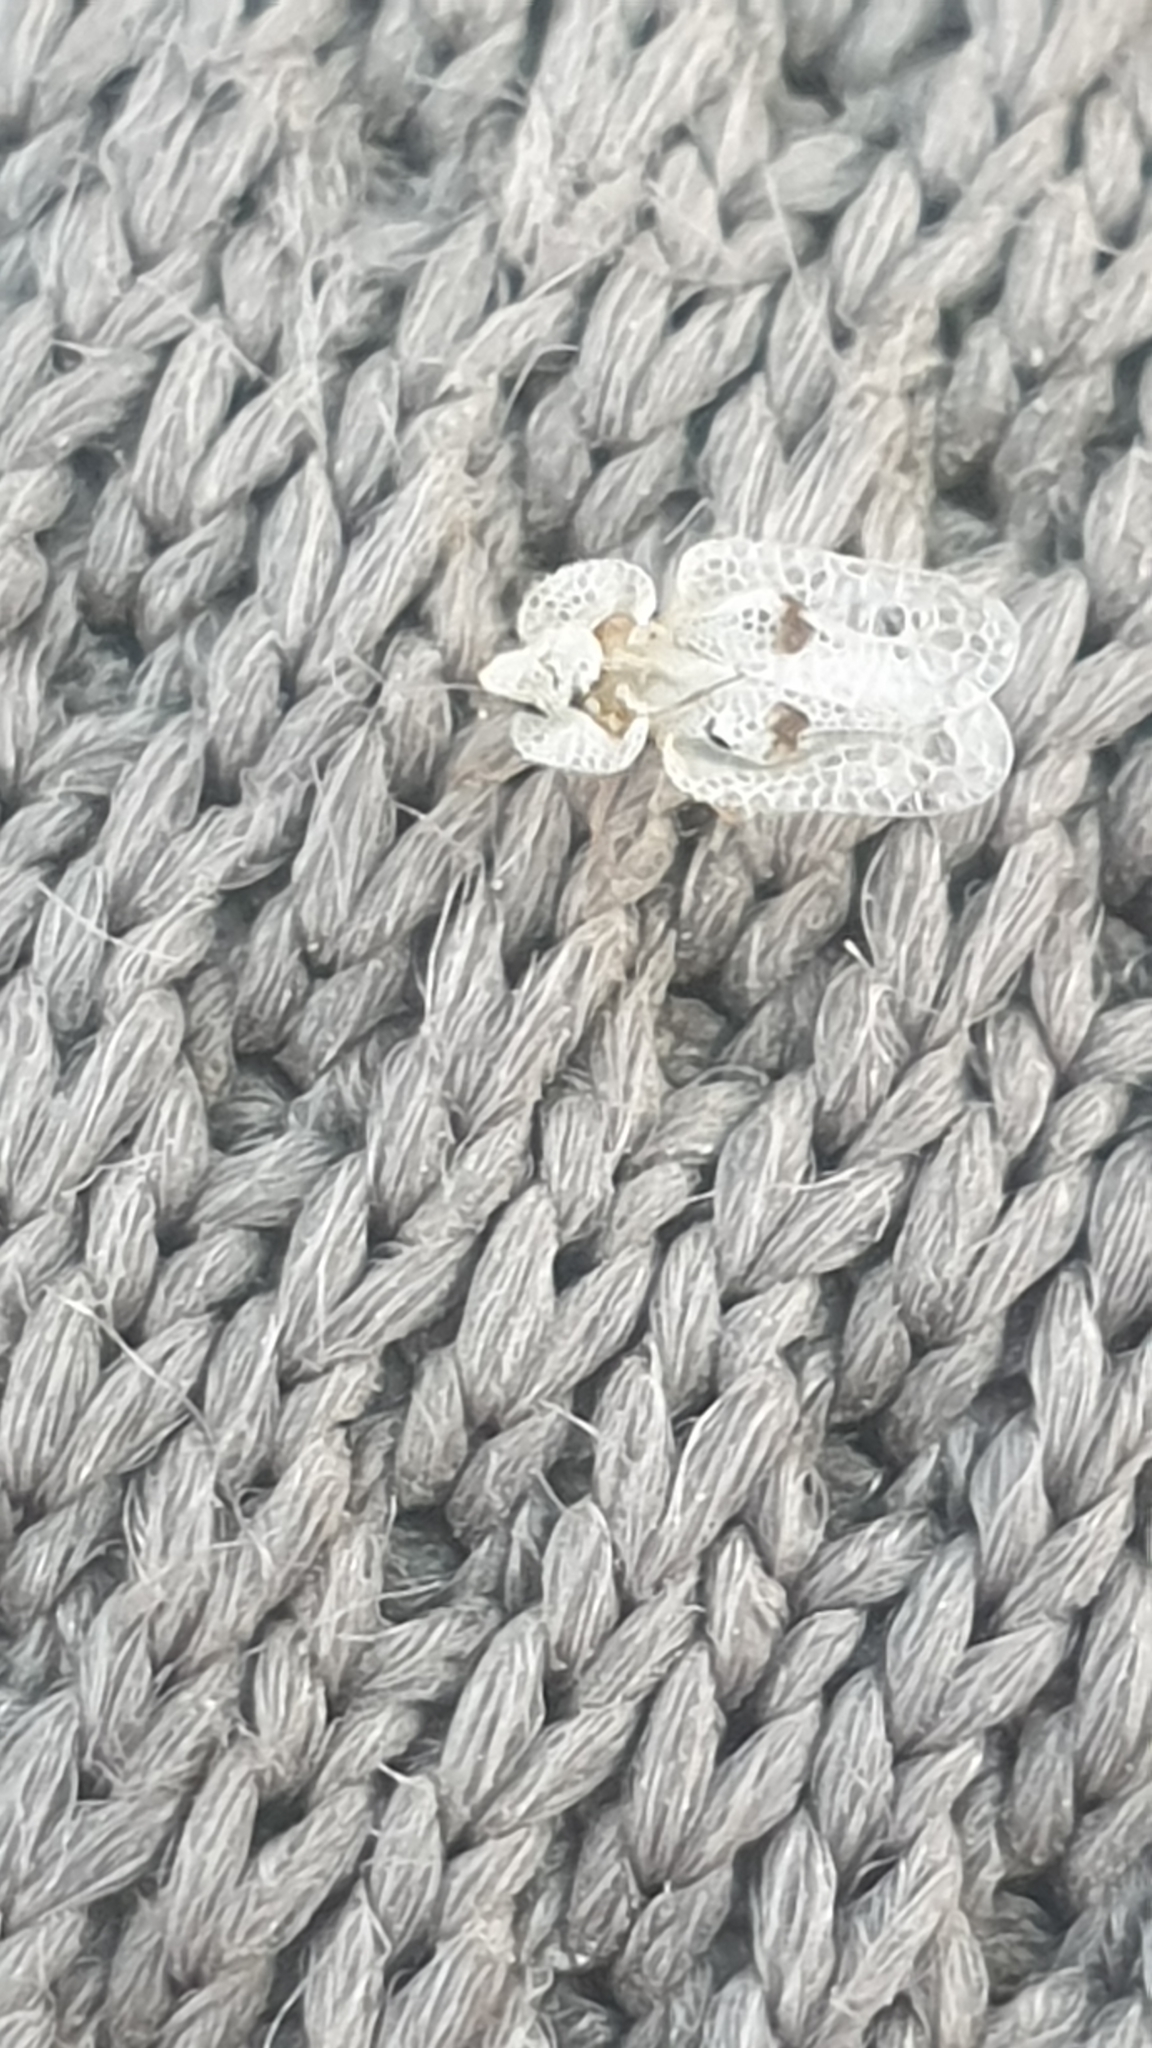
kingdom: Animalia
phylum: Arthropoda
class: Insecta
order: Hemiptera
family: Tingidae
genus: Corythucha
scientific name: Corythucha ciliata
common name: Sycamore lace bug
